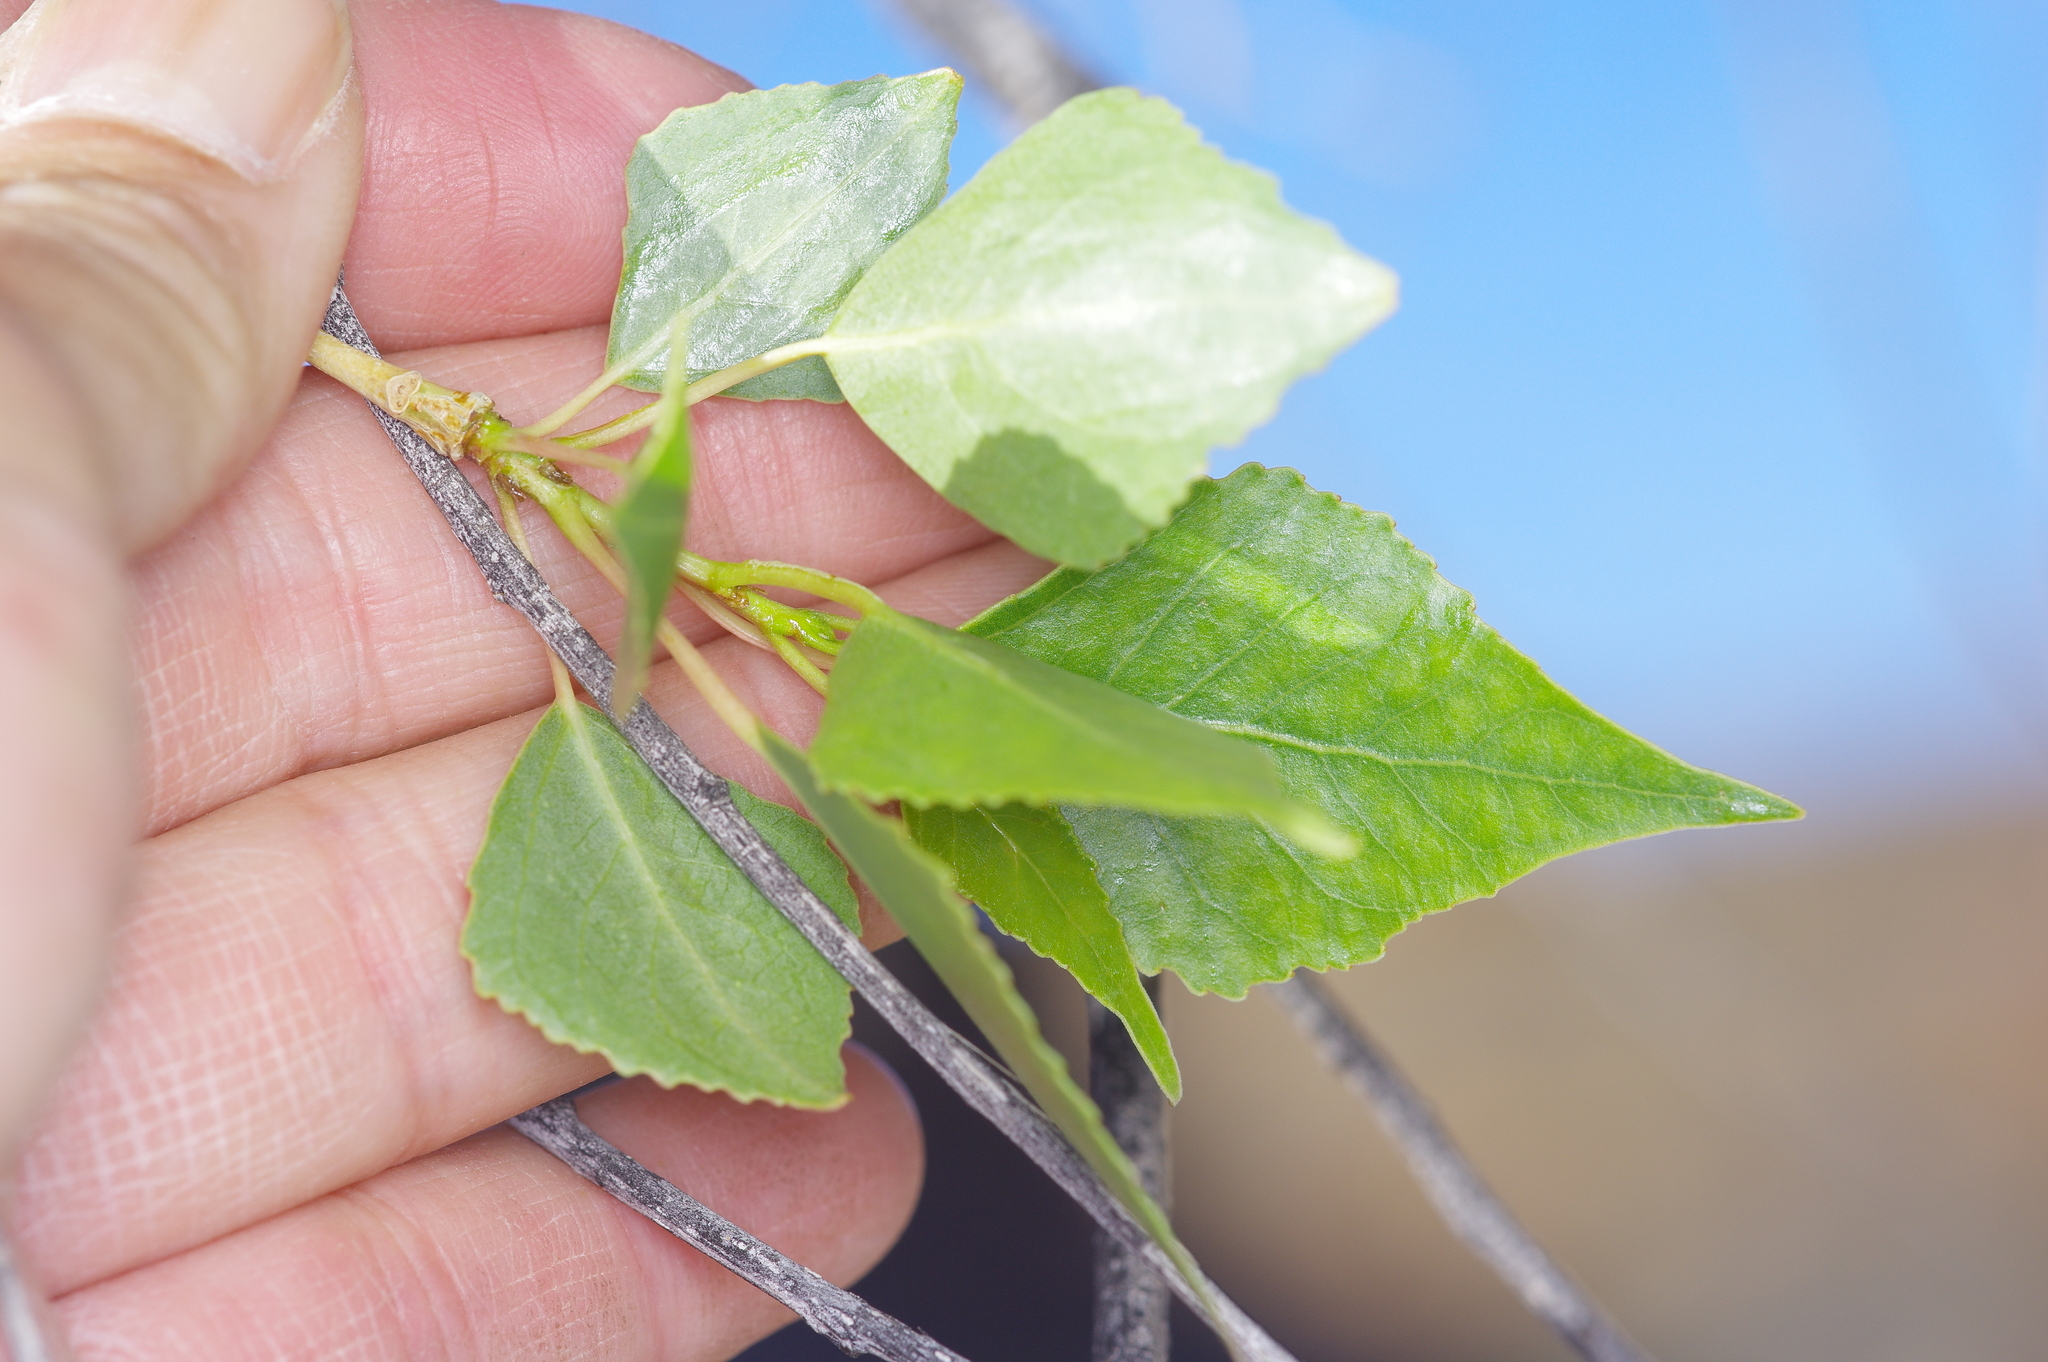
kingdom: Plantae
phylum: Tracheophyta
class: Magnoliopsida
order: Malpighiales
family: Salicaceae
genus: Populus
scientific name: Populus fremontii
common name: Fremont's cottonwood
